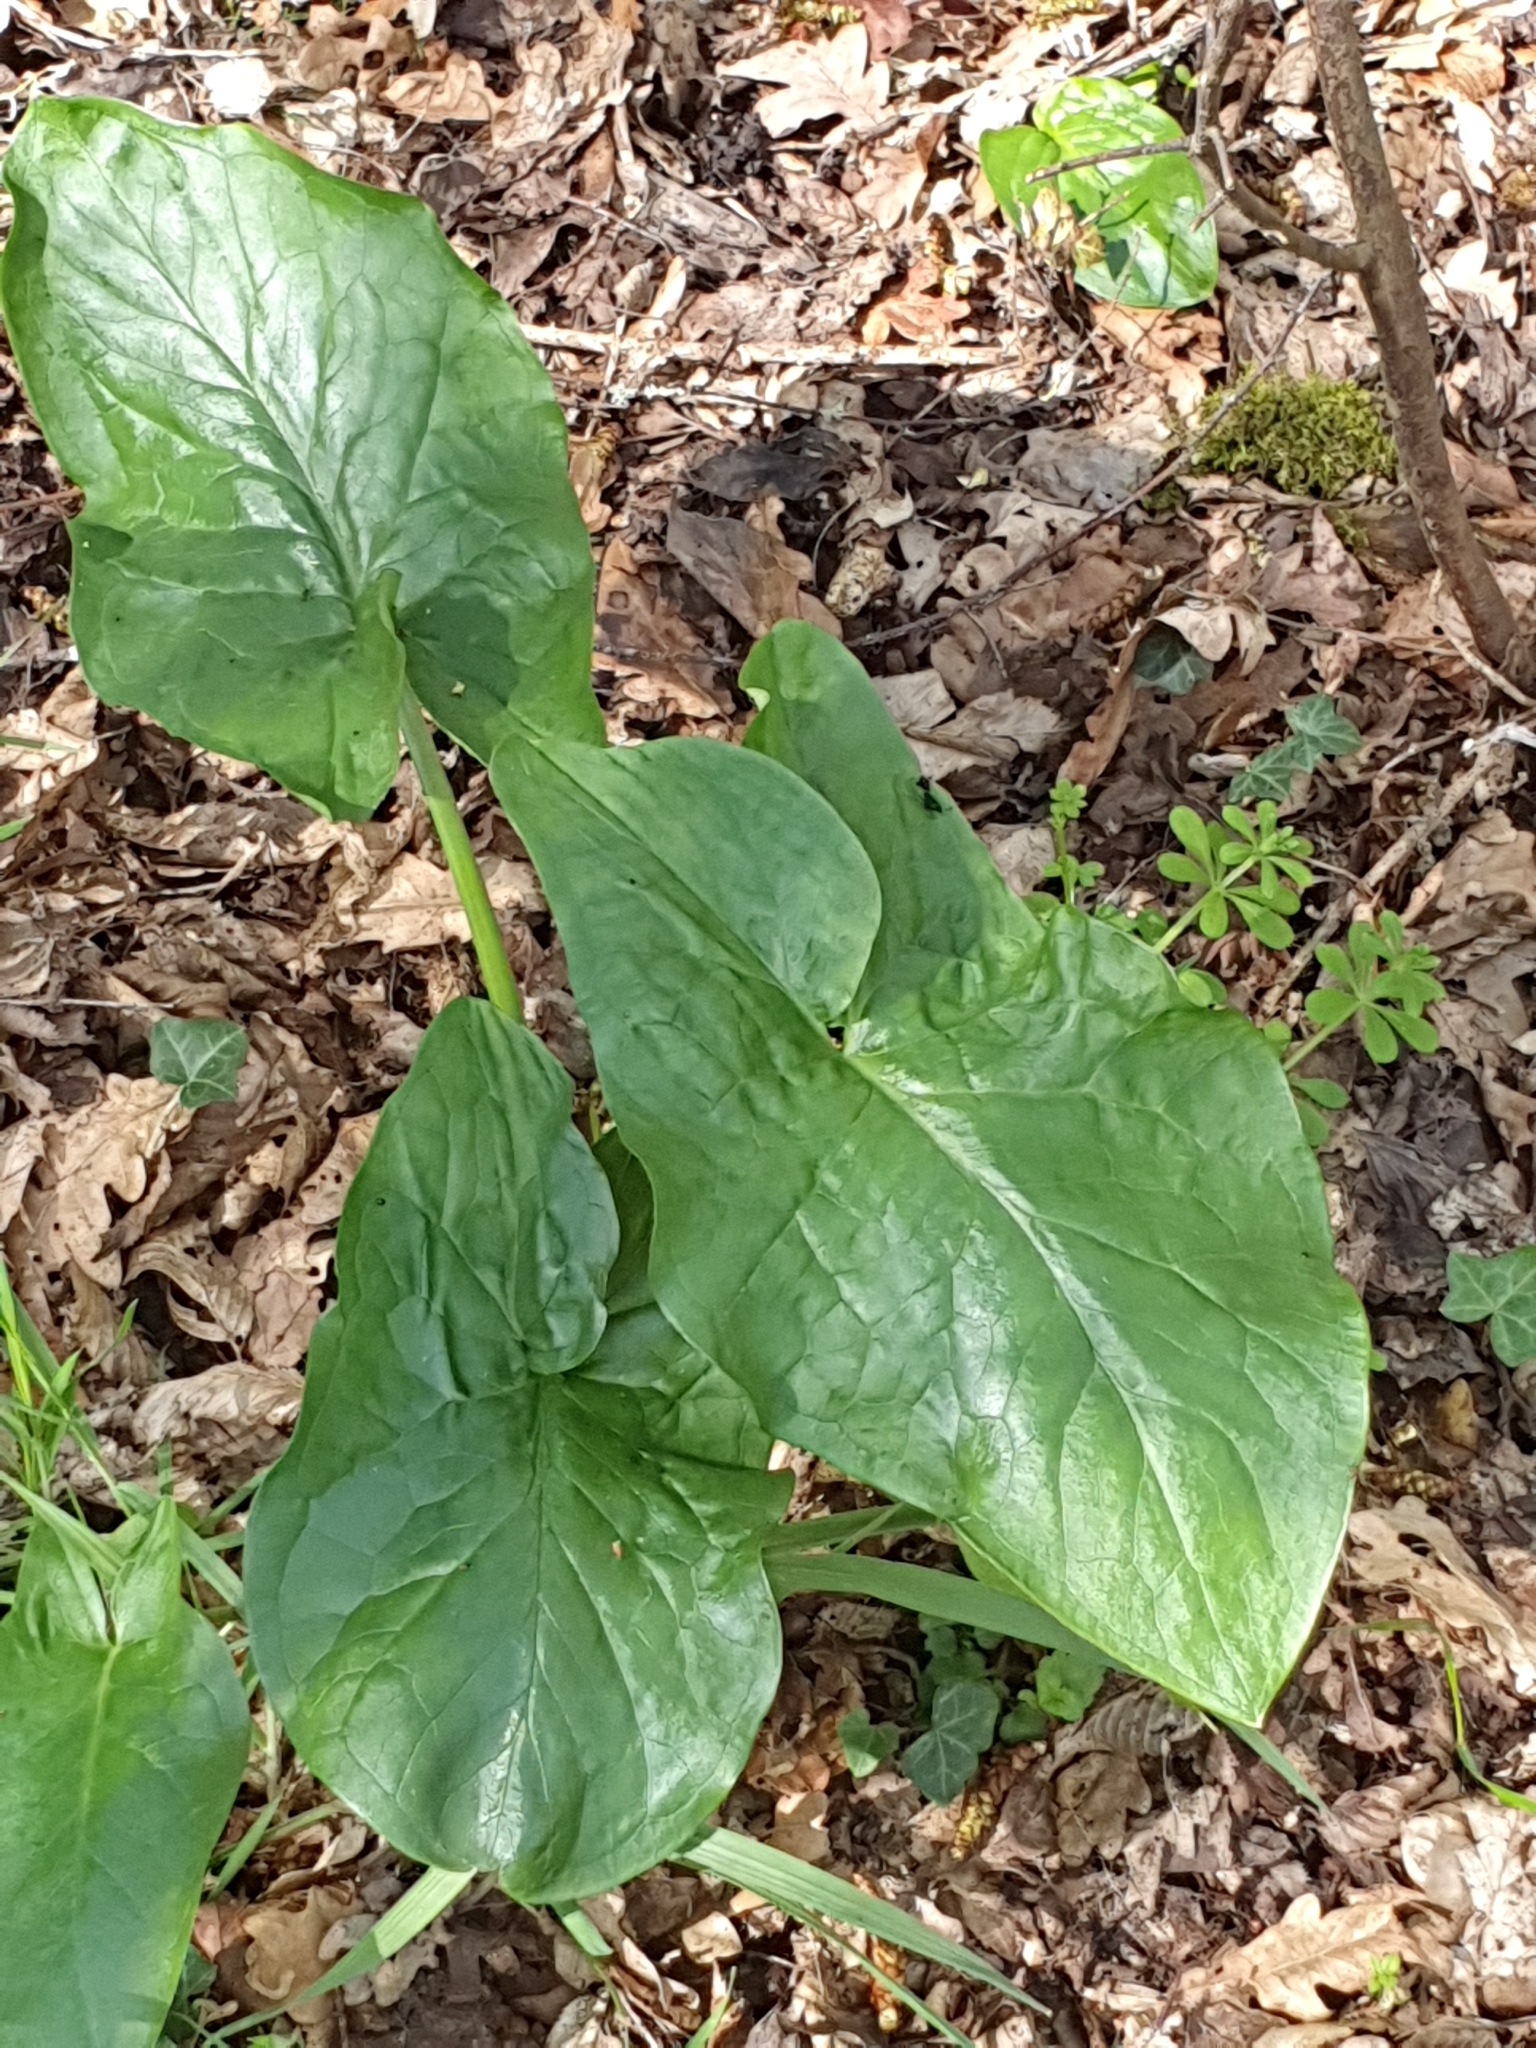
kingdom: Plantae
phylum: Tracheophyta
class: Liliopsida
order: Alismatales
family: Araceae
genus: Arum
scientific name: Arum maculatum
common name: Lords-and-ladies
